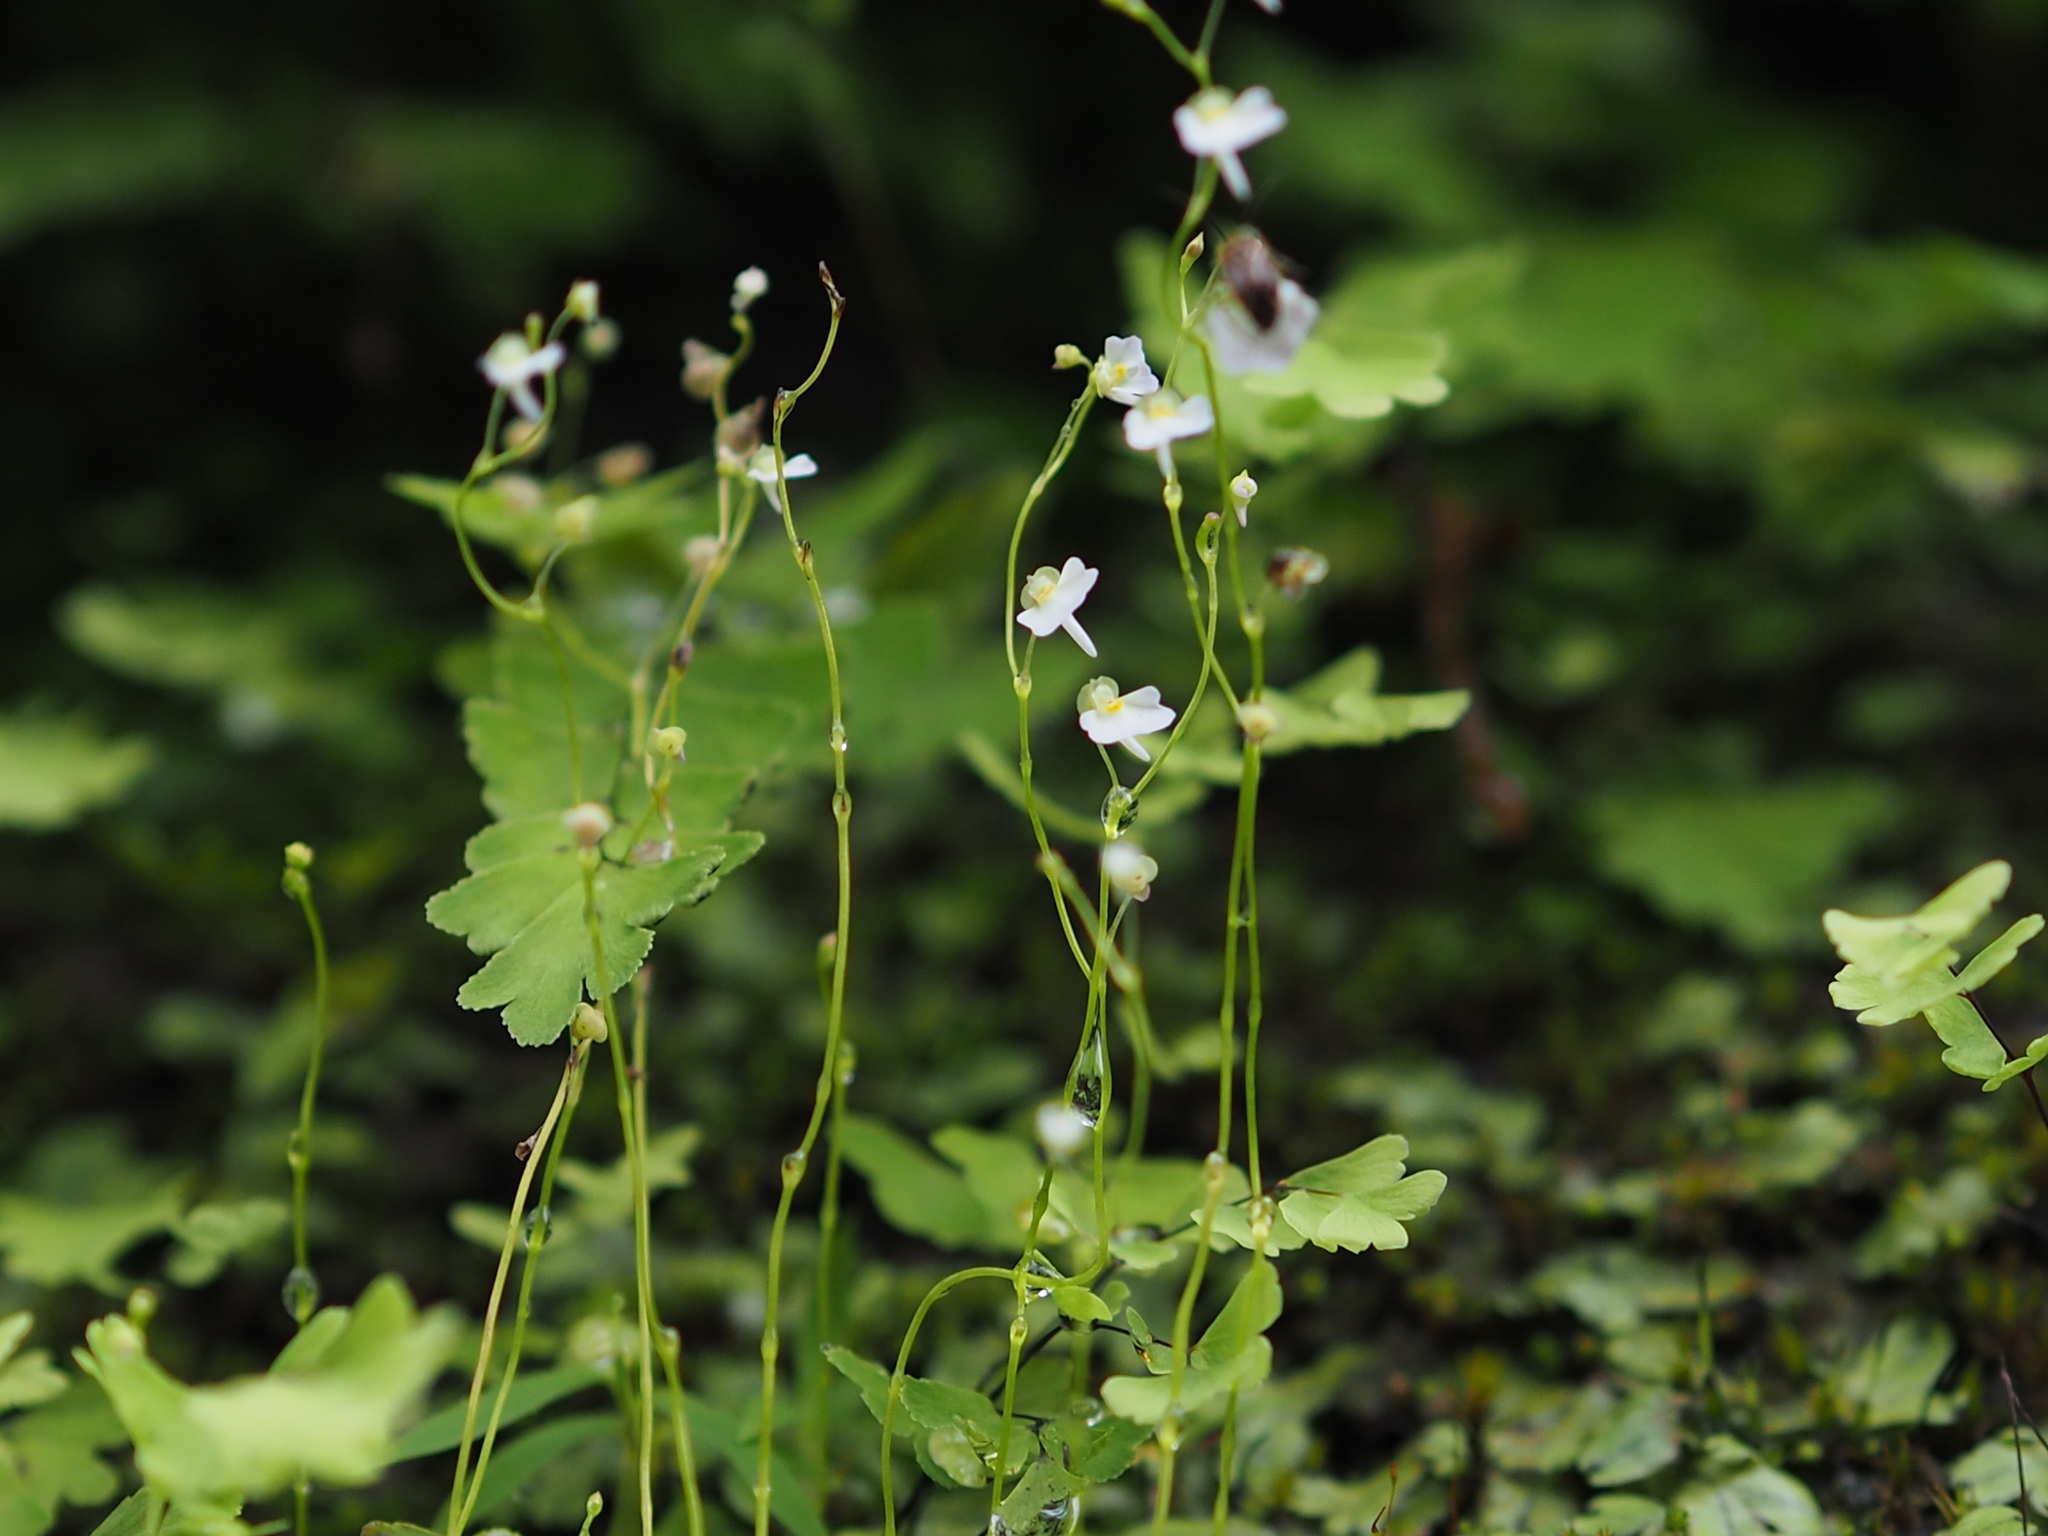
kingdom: Plantae
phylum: Tracheophyta
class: Magnoliopsida
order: Lamiales
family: Lentibulariaceae
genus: Utricularia
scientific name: Utricularia striatula
